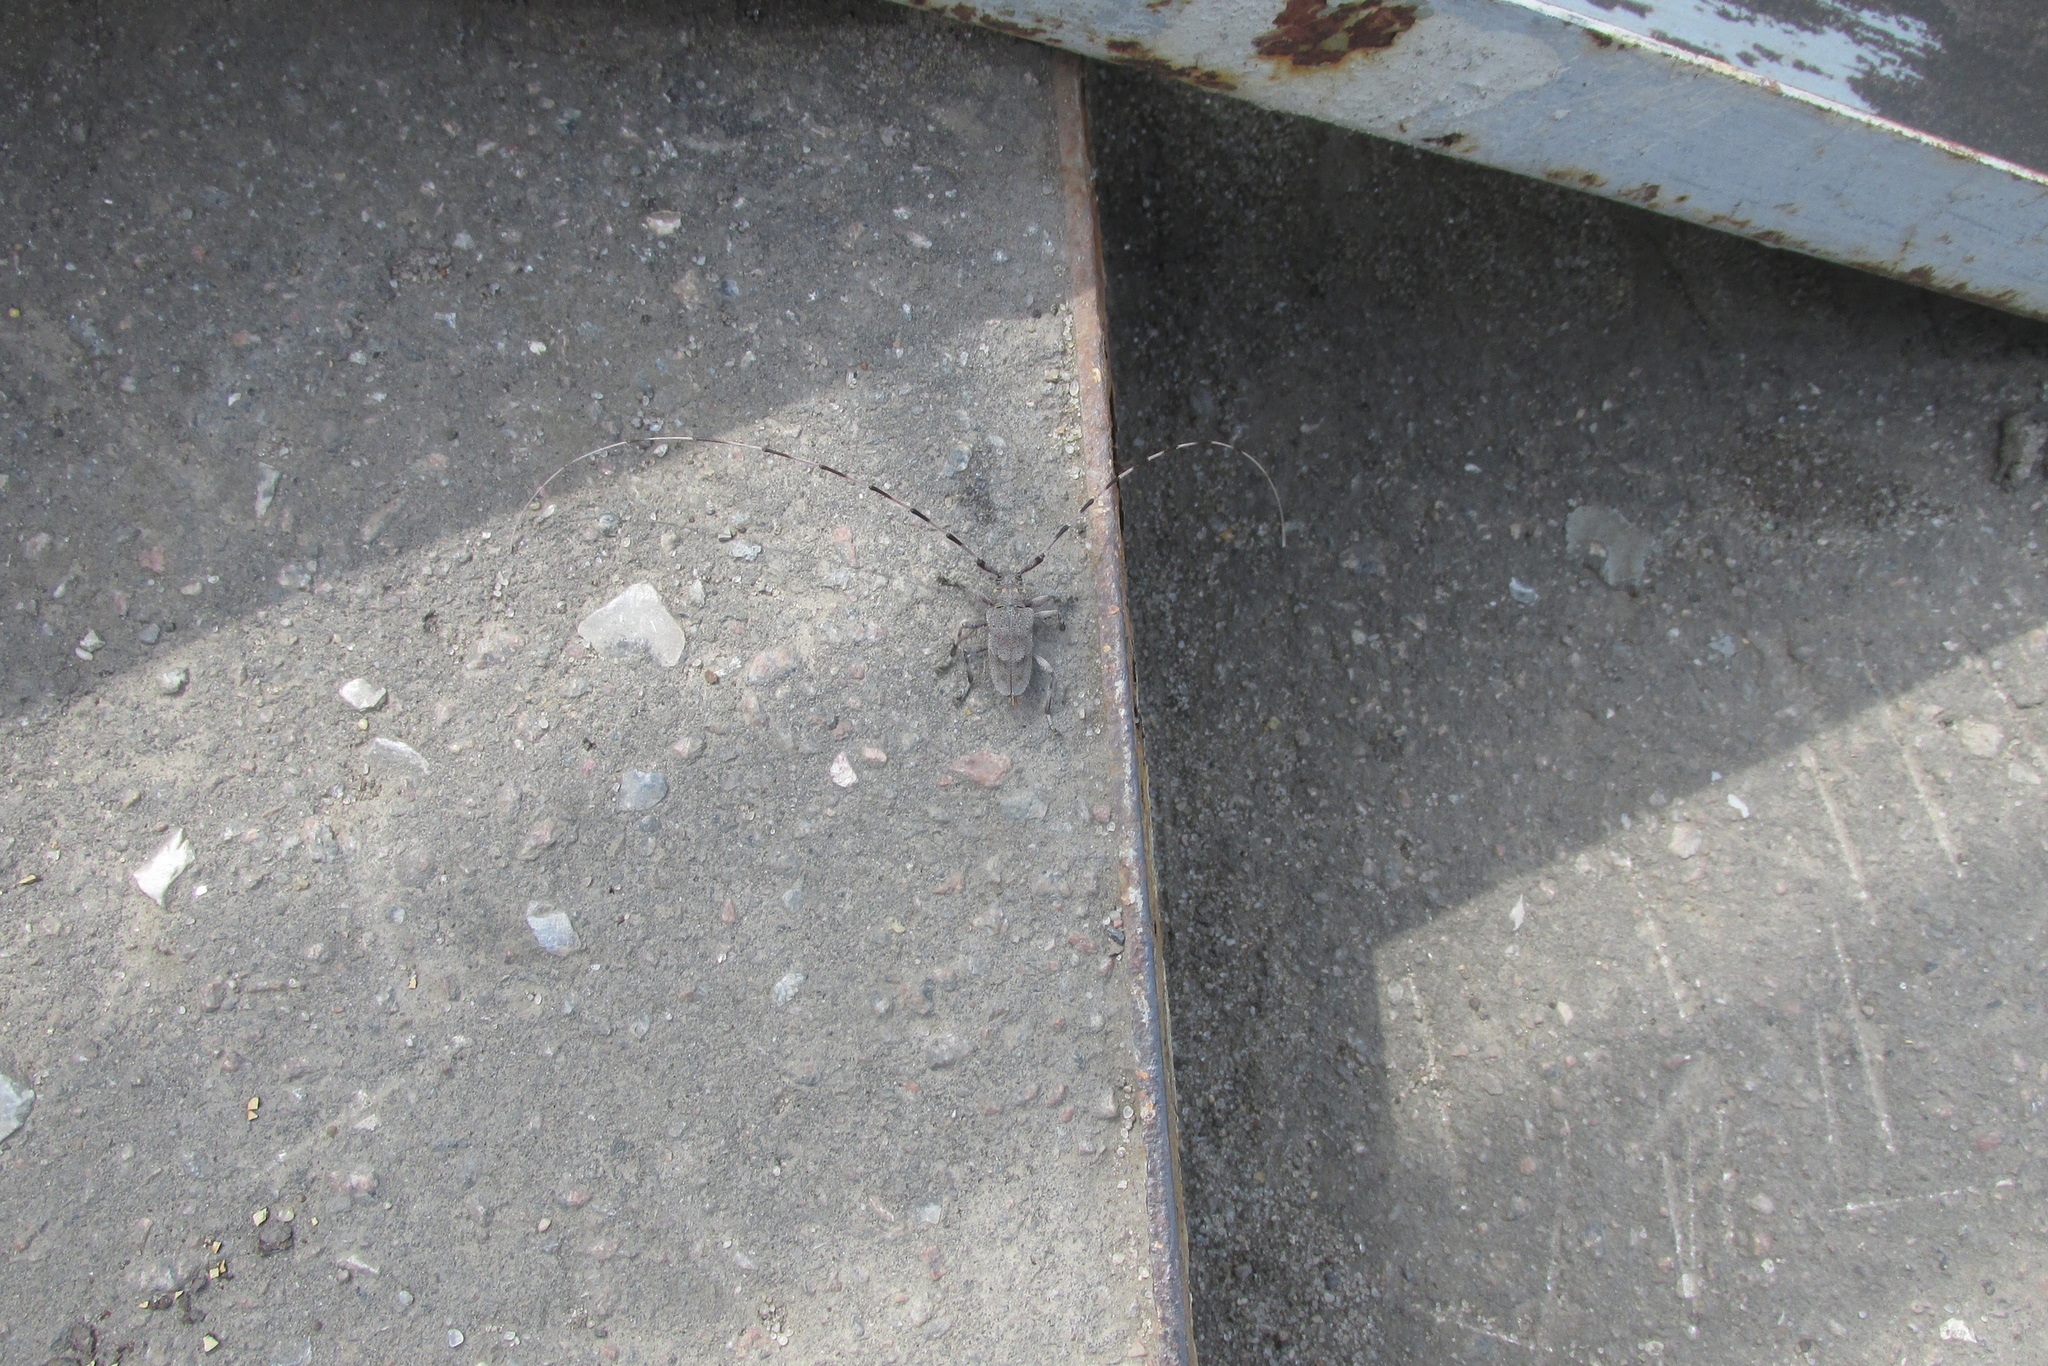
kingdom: Animalia
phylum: Arthropoda
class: Insecta
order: Coleoptera
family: Cerambycidae
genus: Acanthocinus
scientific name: Acanthocinus aedilis
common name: Timberman beetle
